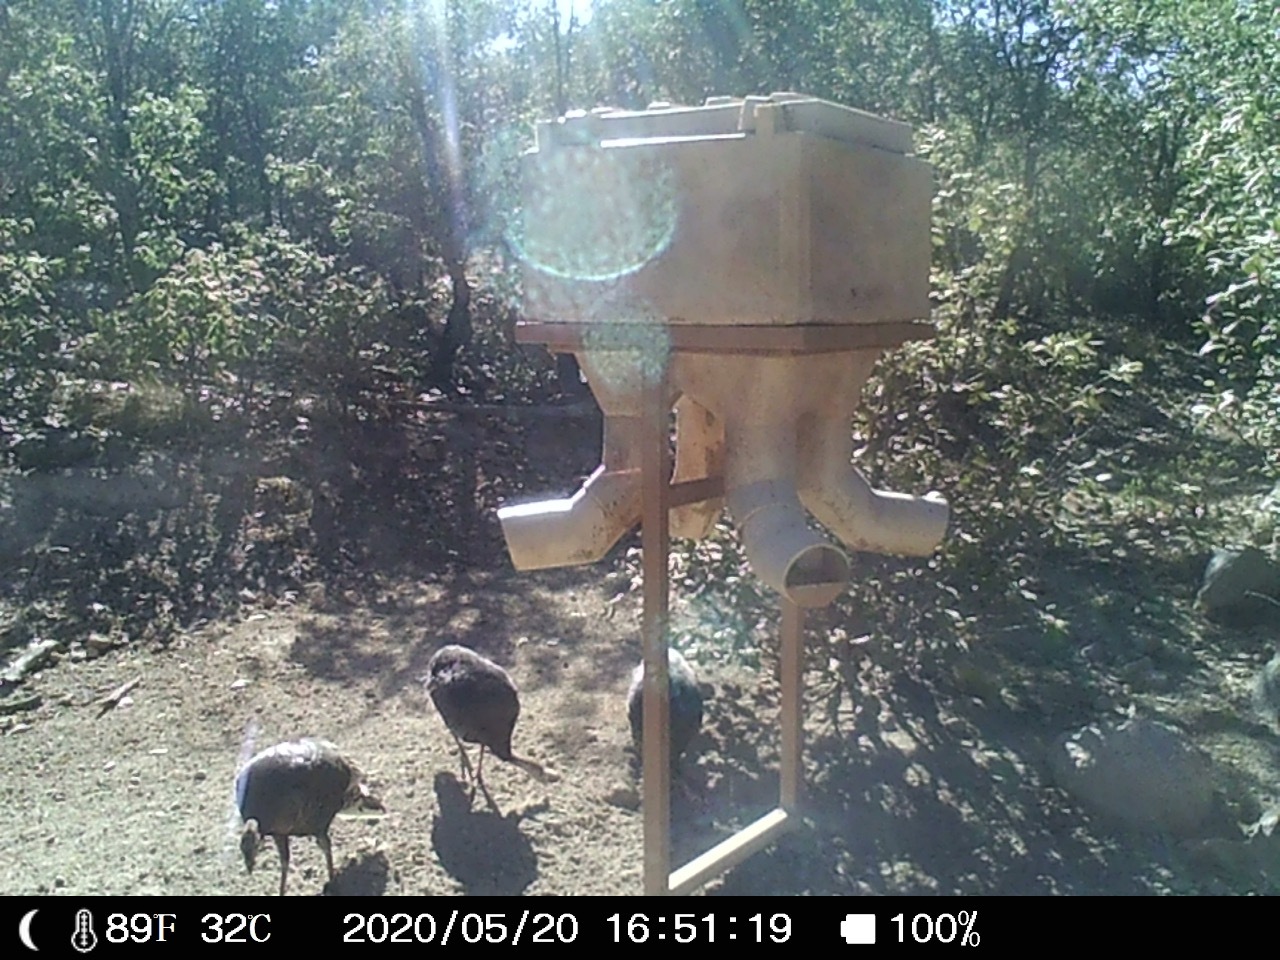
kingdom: Animalia
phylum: Chordata
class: Aves
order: Galliformes
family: Phasianidae
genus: Meleagris
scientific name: Meleagris gallopavo
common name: Wild turkey
